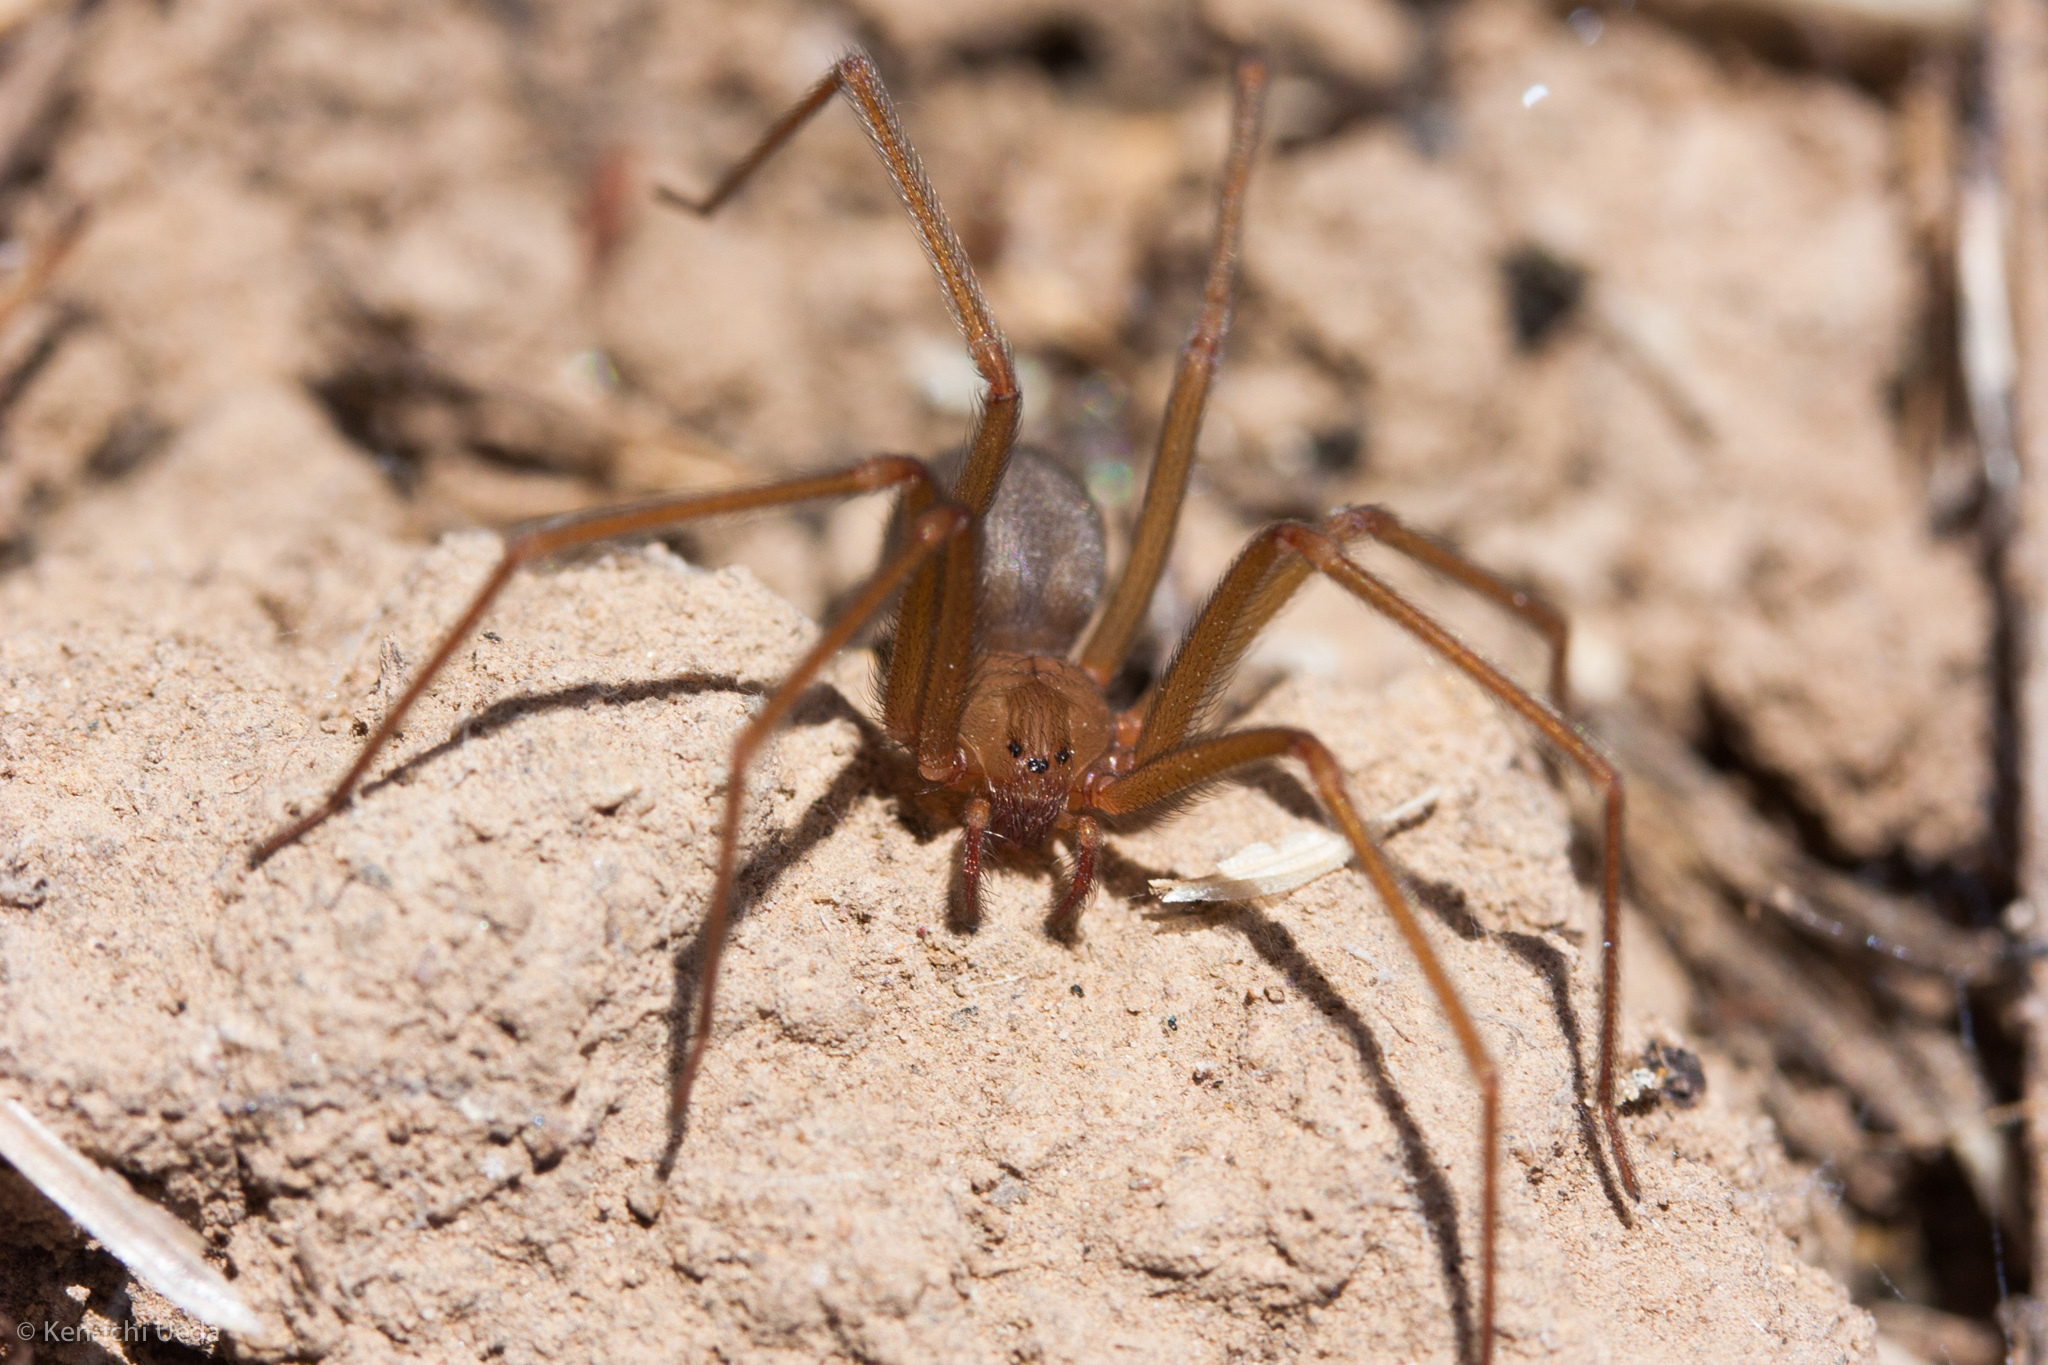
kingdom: Animalia
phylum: Arthropoda
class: Arachnida
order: Araneae
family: Sicariidae
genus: Loxosceles
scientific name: Loxosceles deserta
